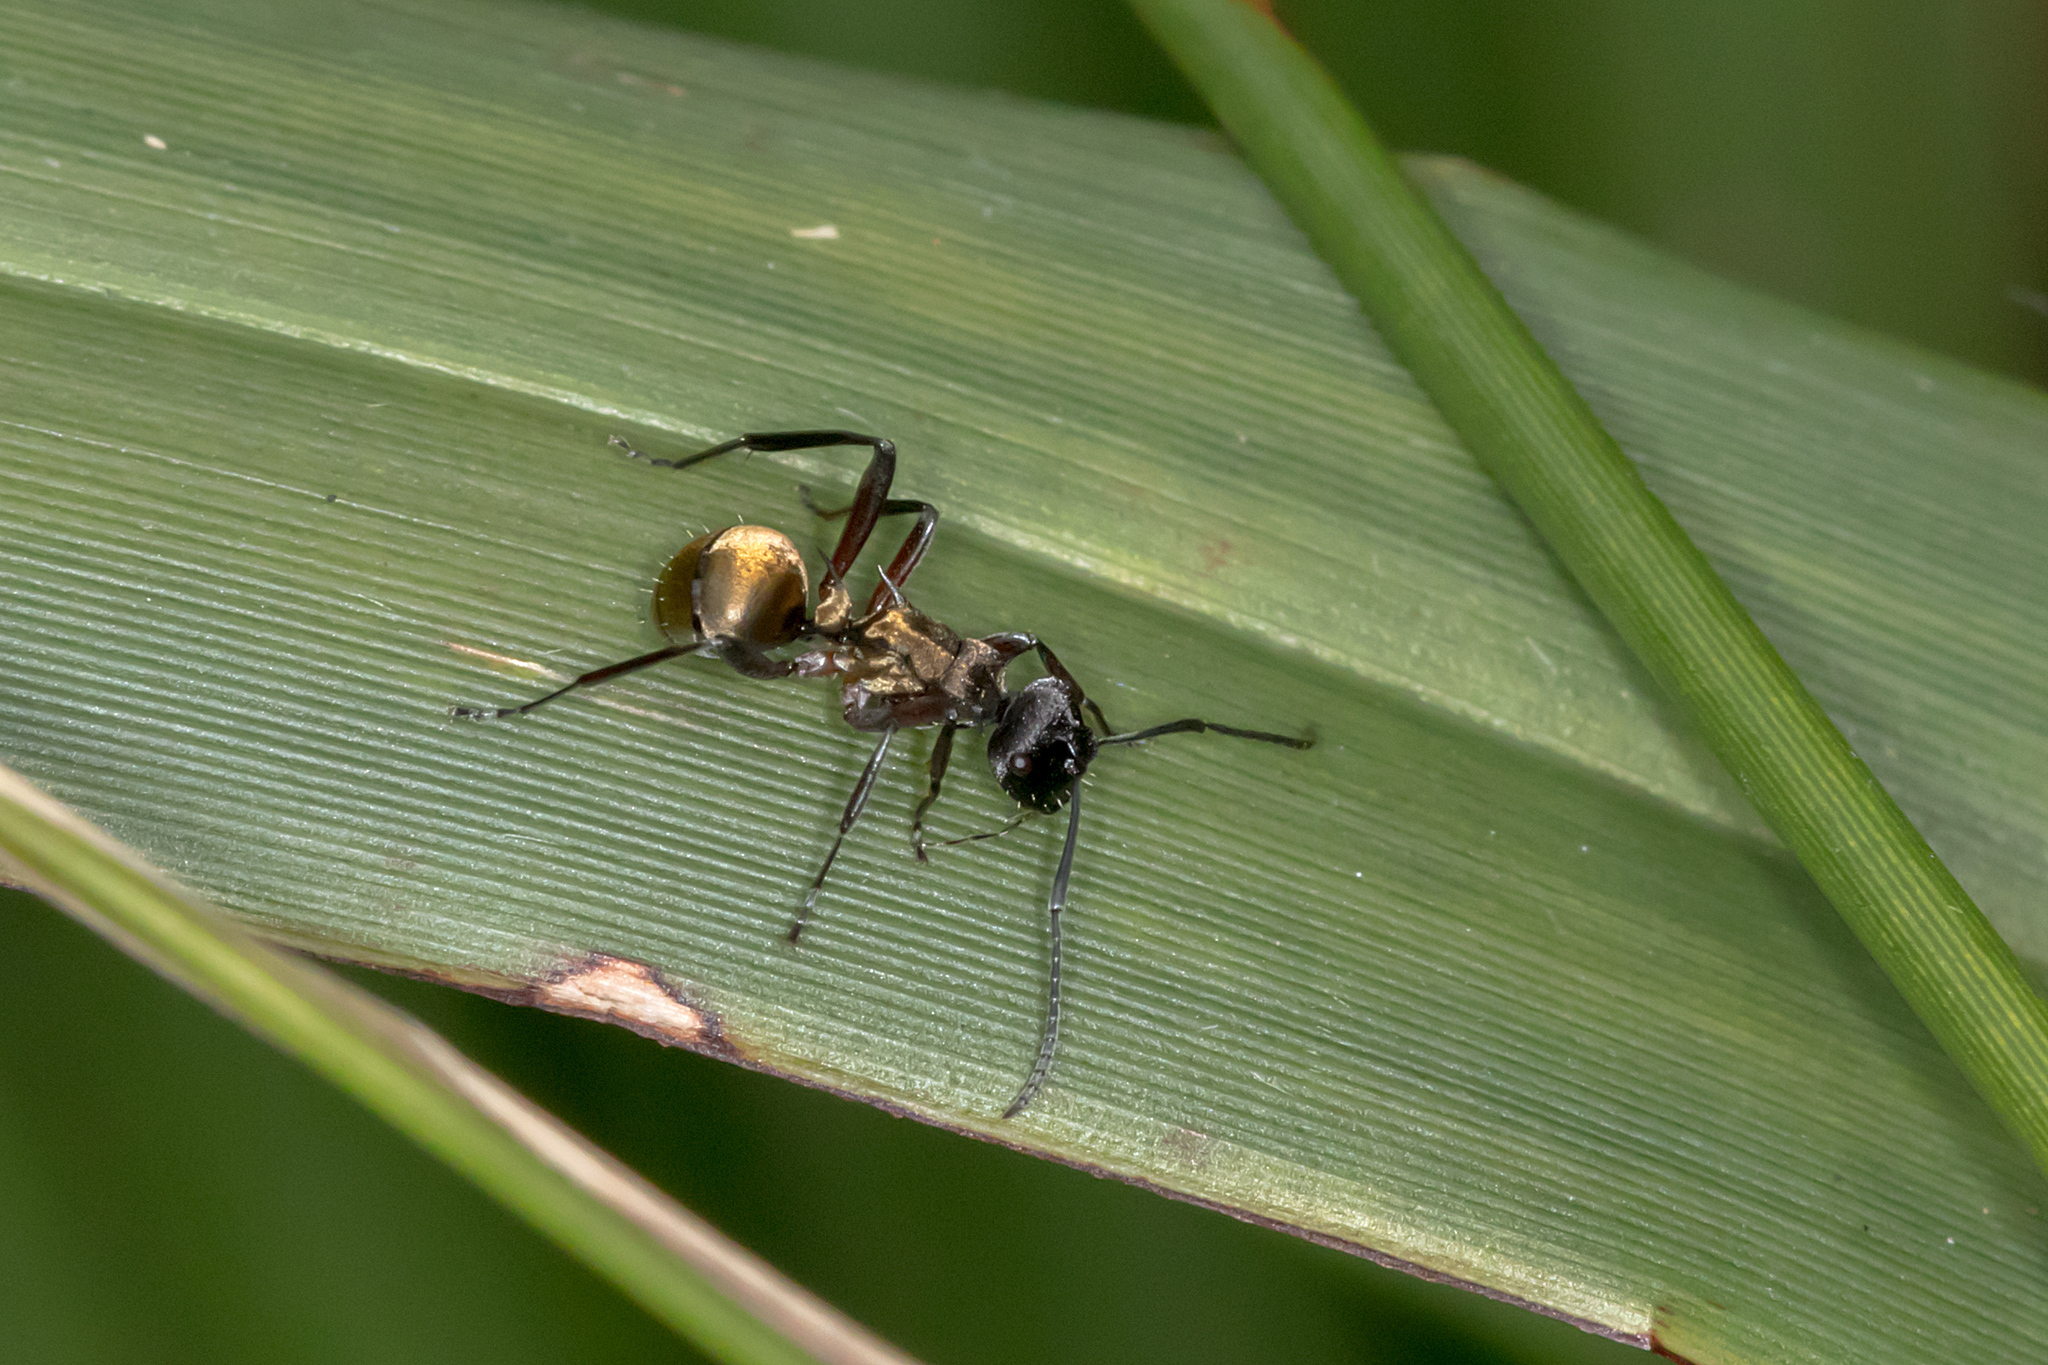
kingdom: Animalia
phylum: Arthropoda
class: Insecta
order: Hymenoptera
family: Formicidae
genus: Polyrhachis
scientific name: Polyrhachis rufifemur
